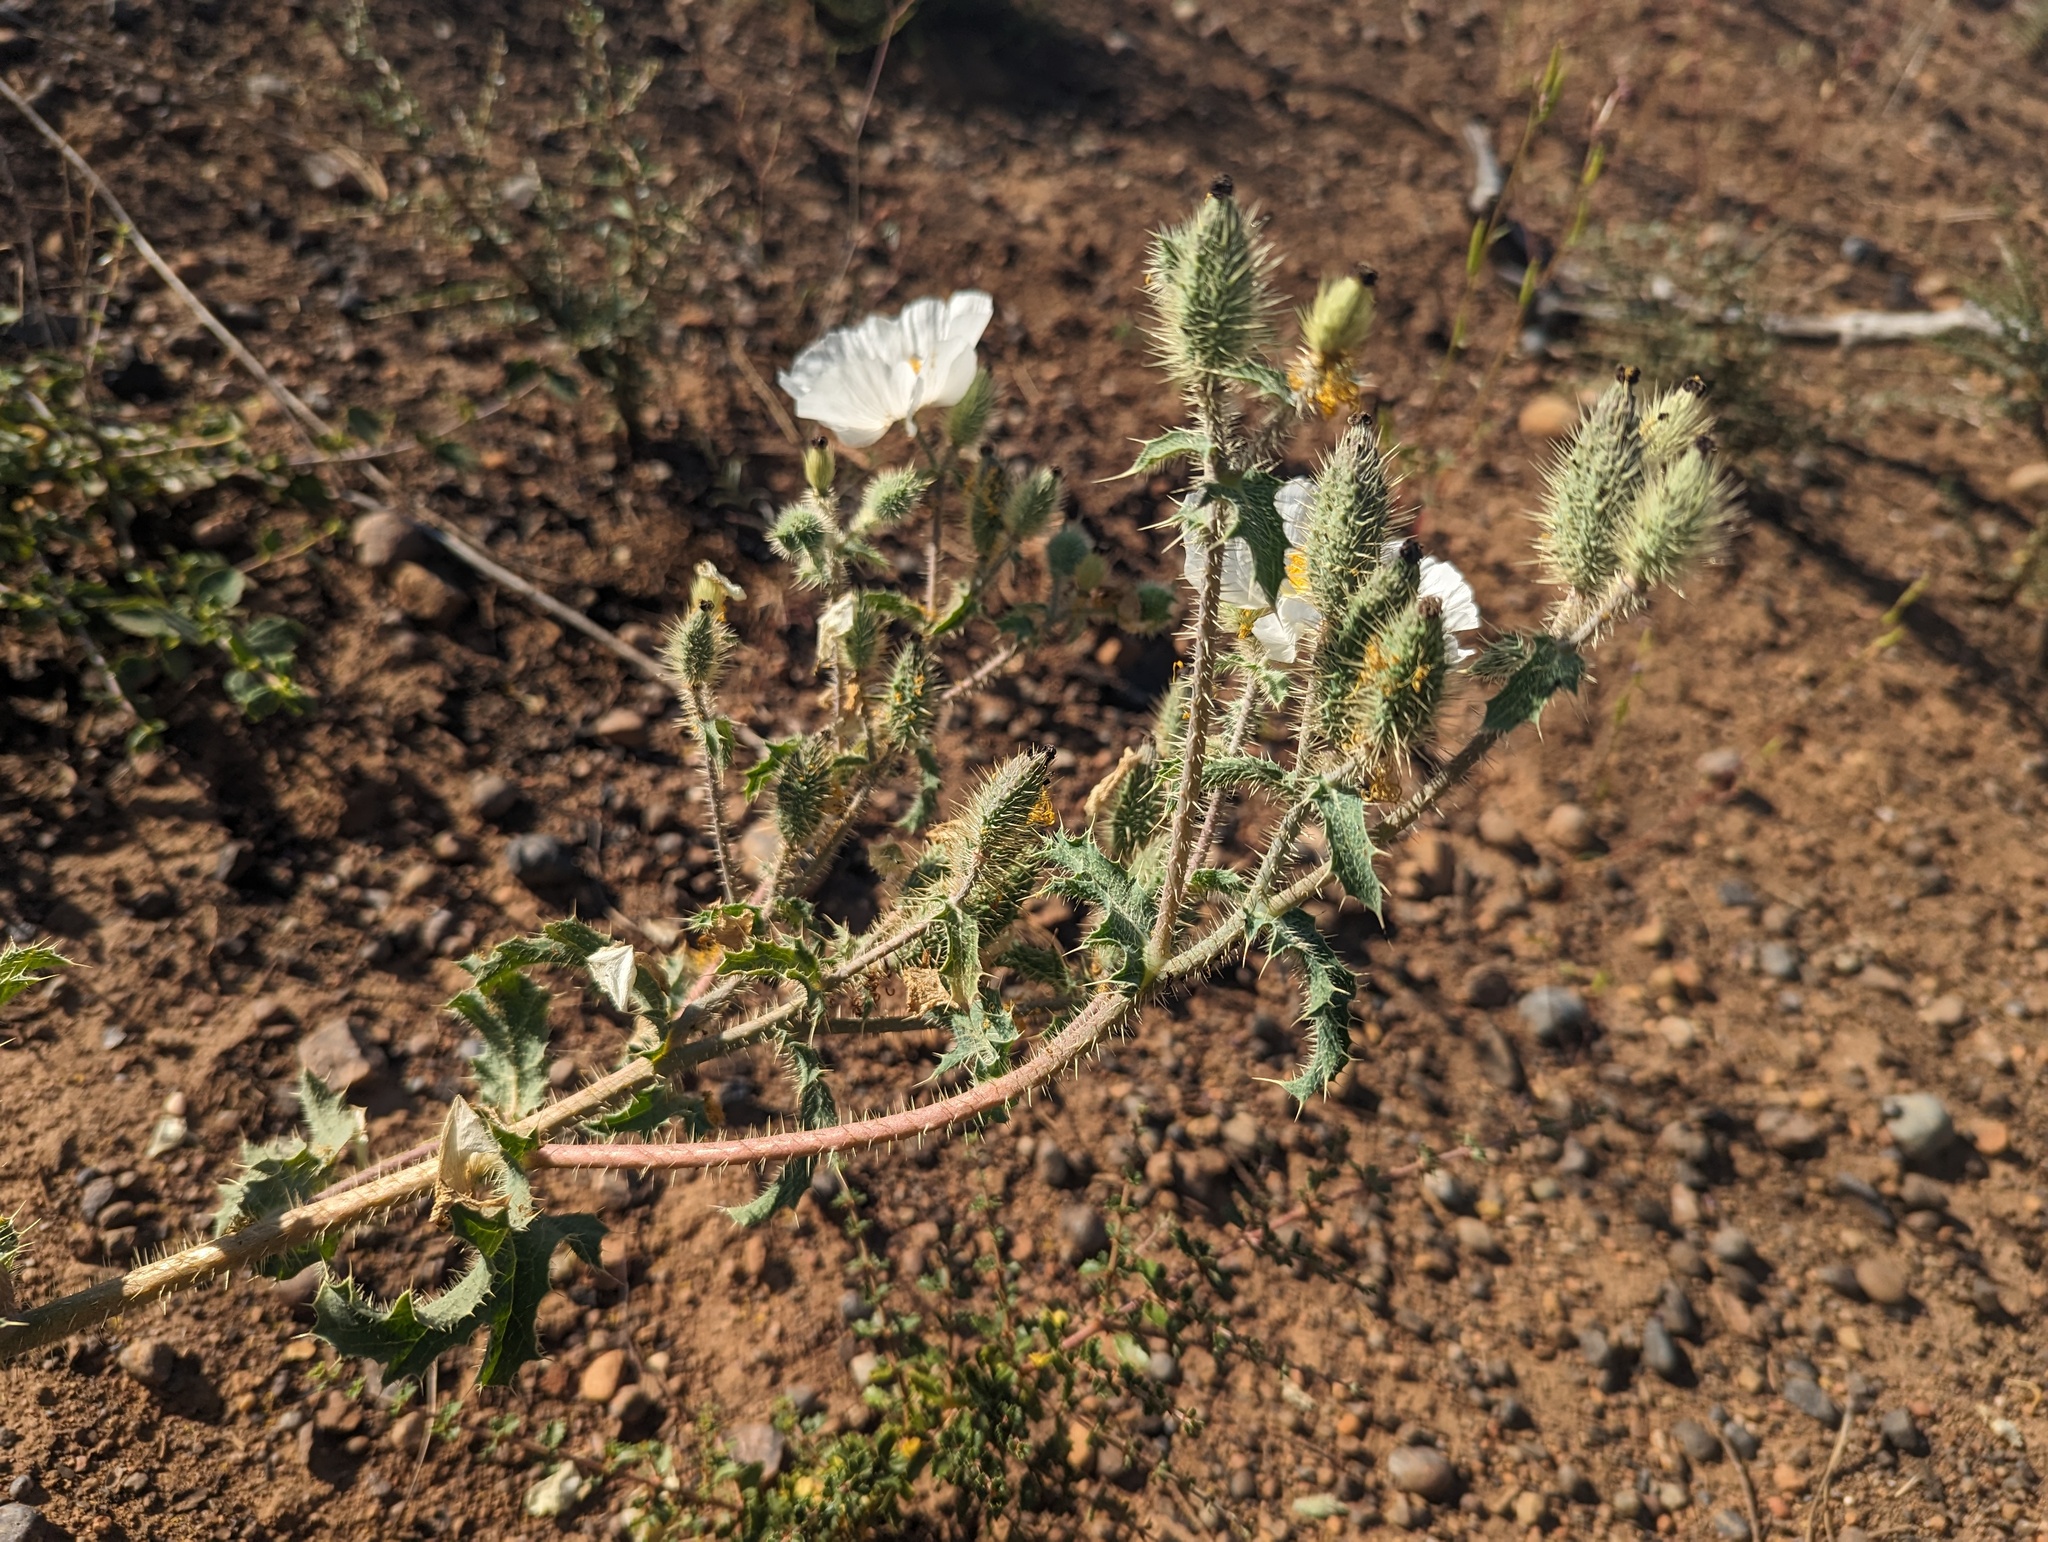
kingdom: Plantae
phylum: Tracheophyta
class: Magnoliopsida
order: Ranunculales
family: Papaveraceae
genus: Argemone
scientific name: Argemone munita
